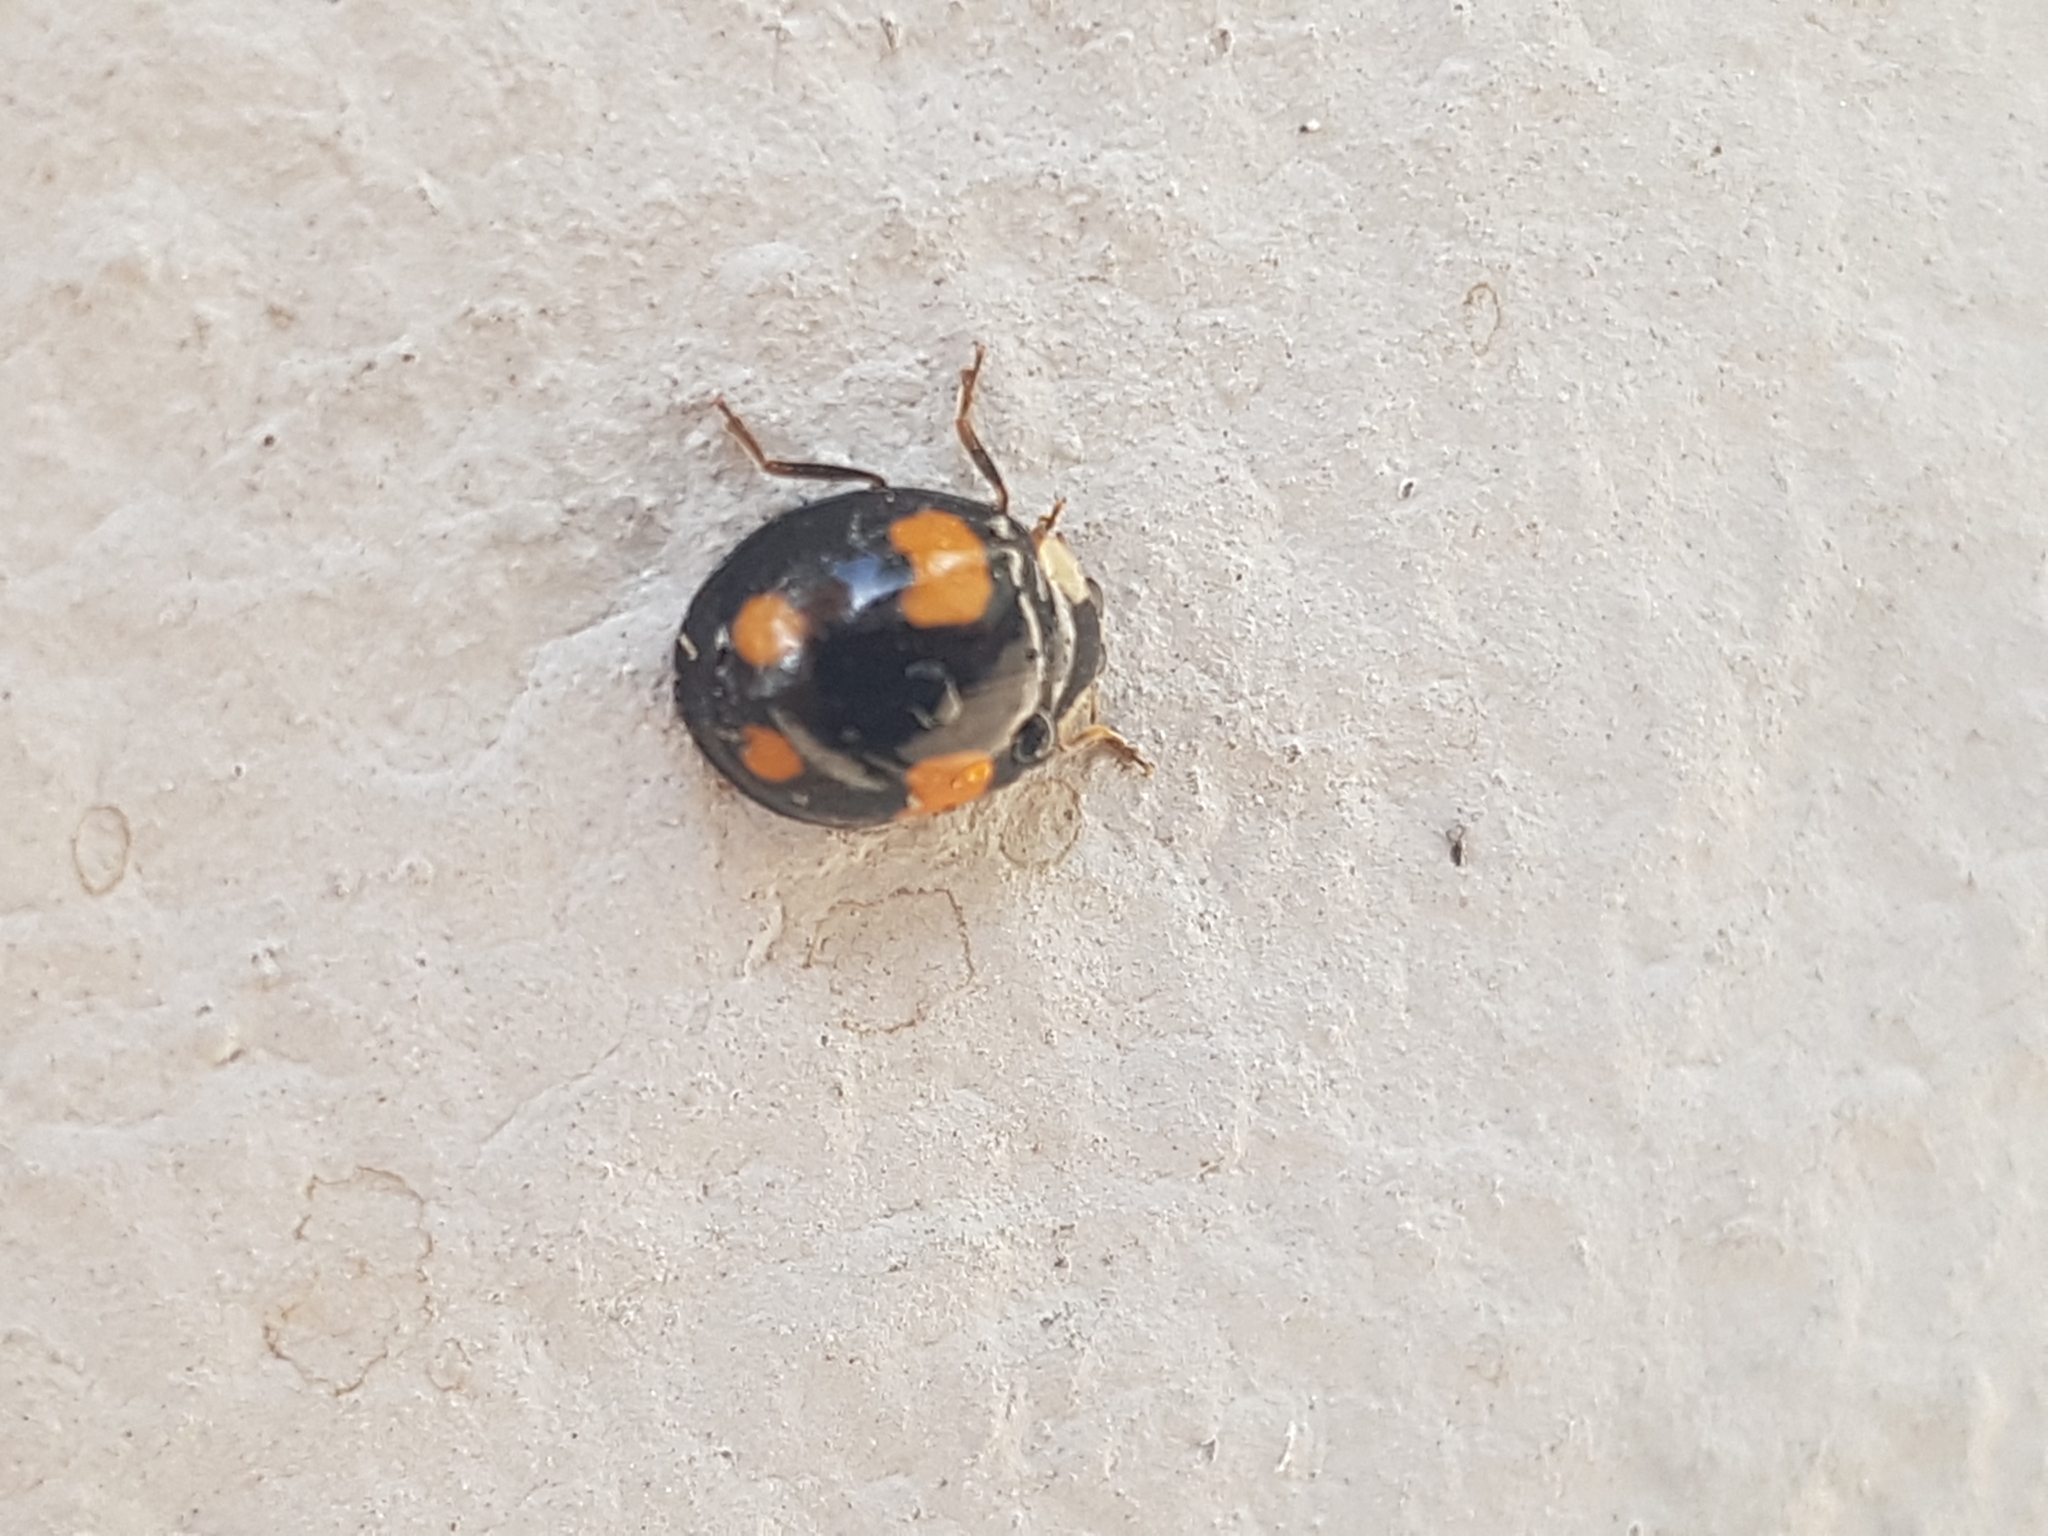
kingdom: Animalia
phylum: Arthropoda
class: Insecta
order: Coleoptera
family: Coccinellidae
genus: Harmonia
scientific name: Harmonia axyridis
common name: Harlequin ladybird
